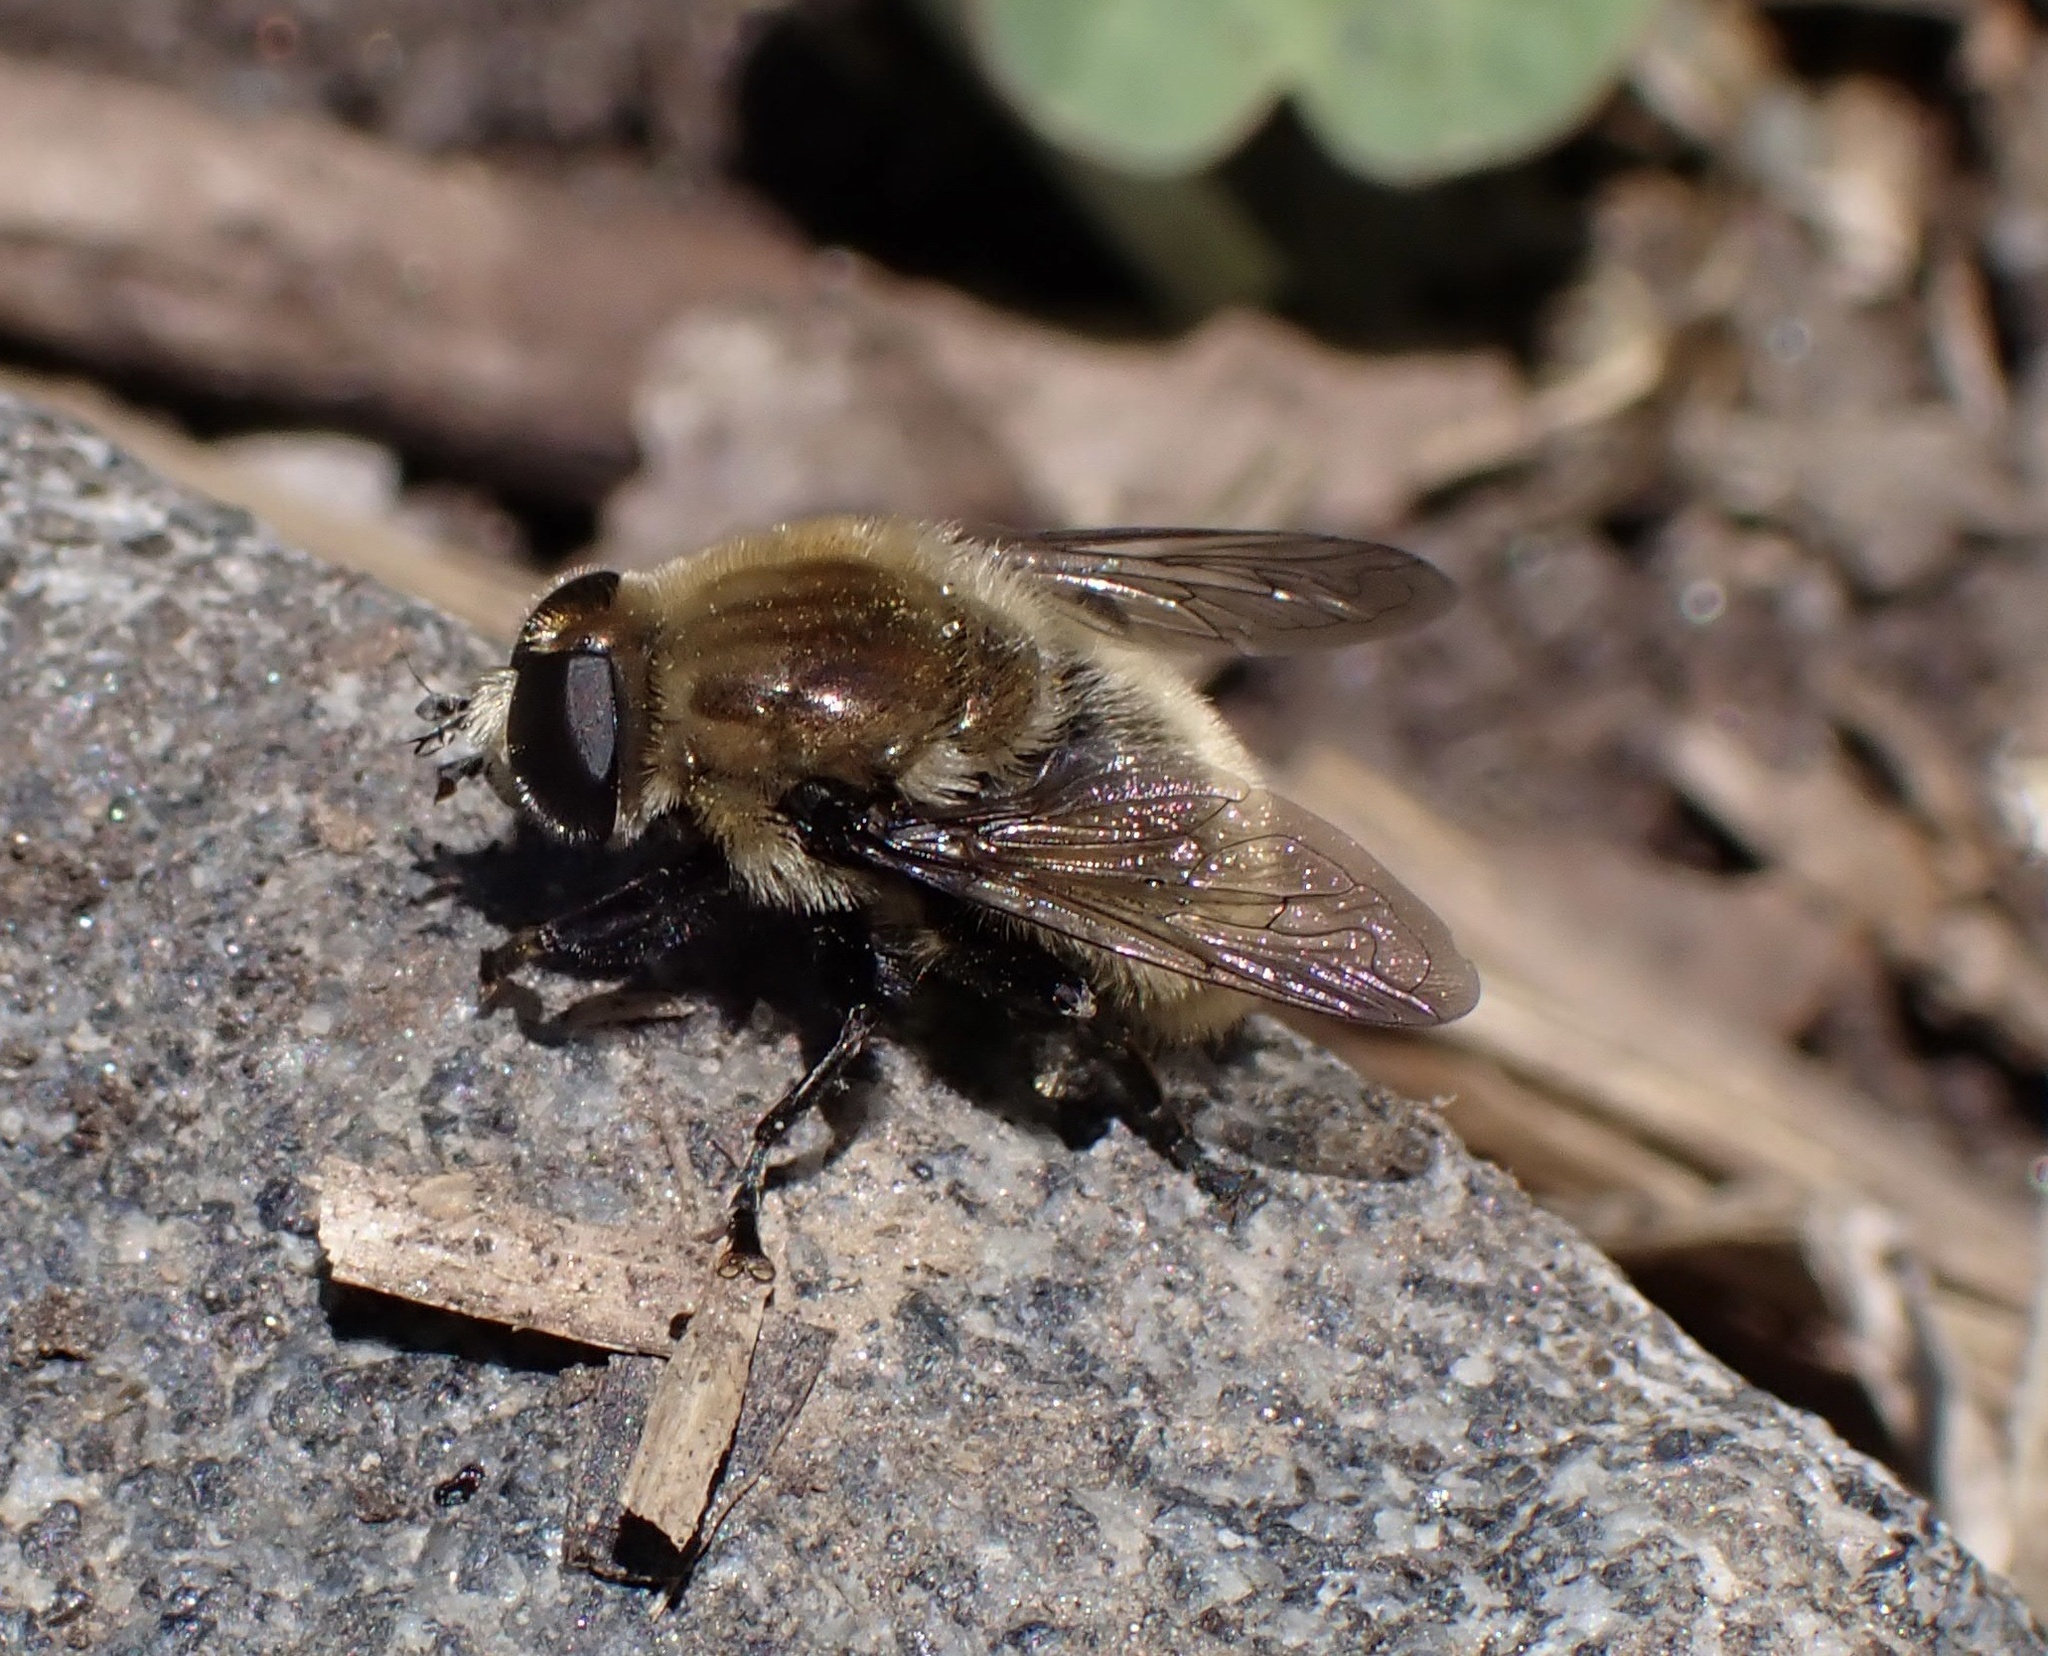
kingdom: Animalia
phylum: Arthropoda
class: Insecta
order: Diptera
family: Syrphidae
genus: Merodon
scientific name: Merodon equestris
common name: Greater bulb-fly
